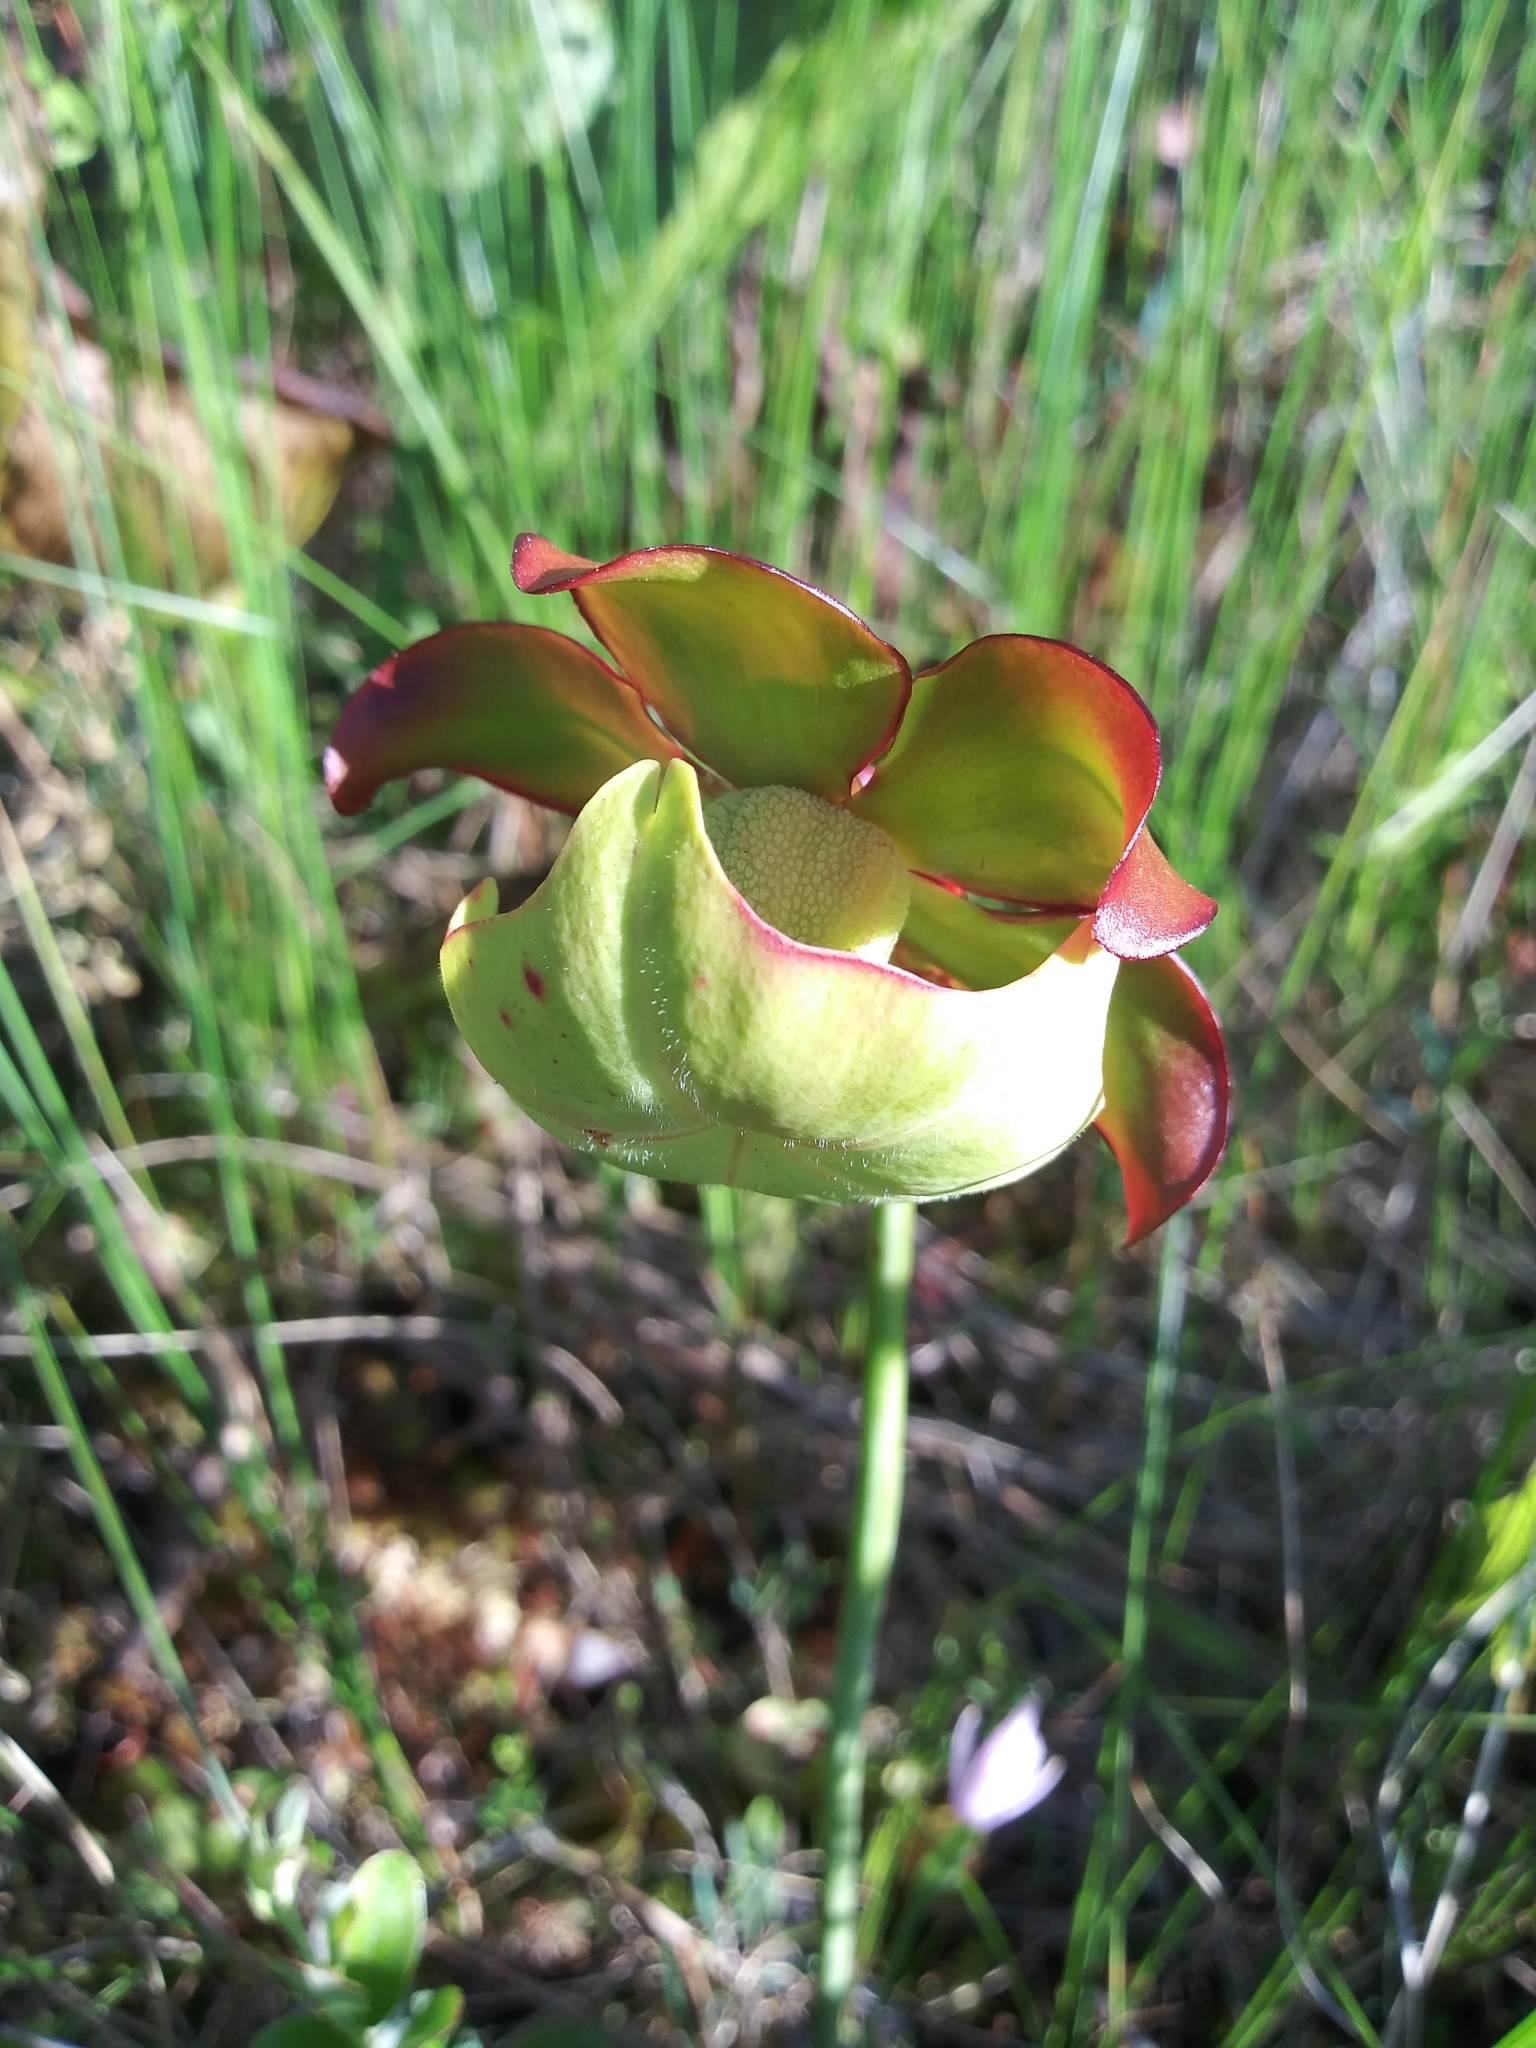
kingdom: Plantae
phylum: Tracheophyta
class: Magnoliopsida
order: Ericales
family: Sarraceniaceae
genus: Sarracenia
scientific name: Sarracenia purpurea
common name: Pitcherplant
